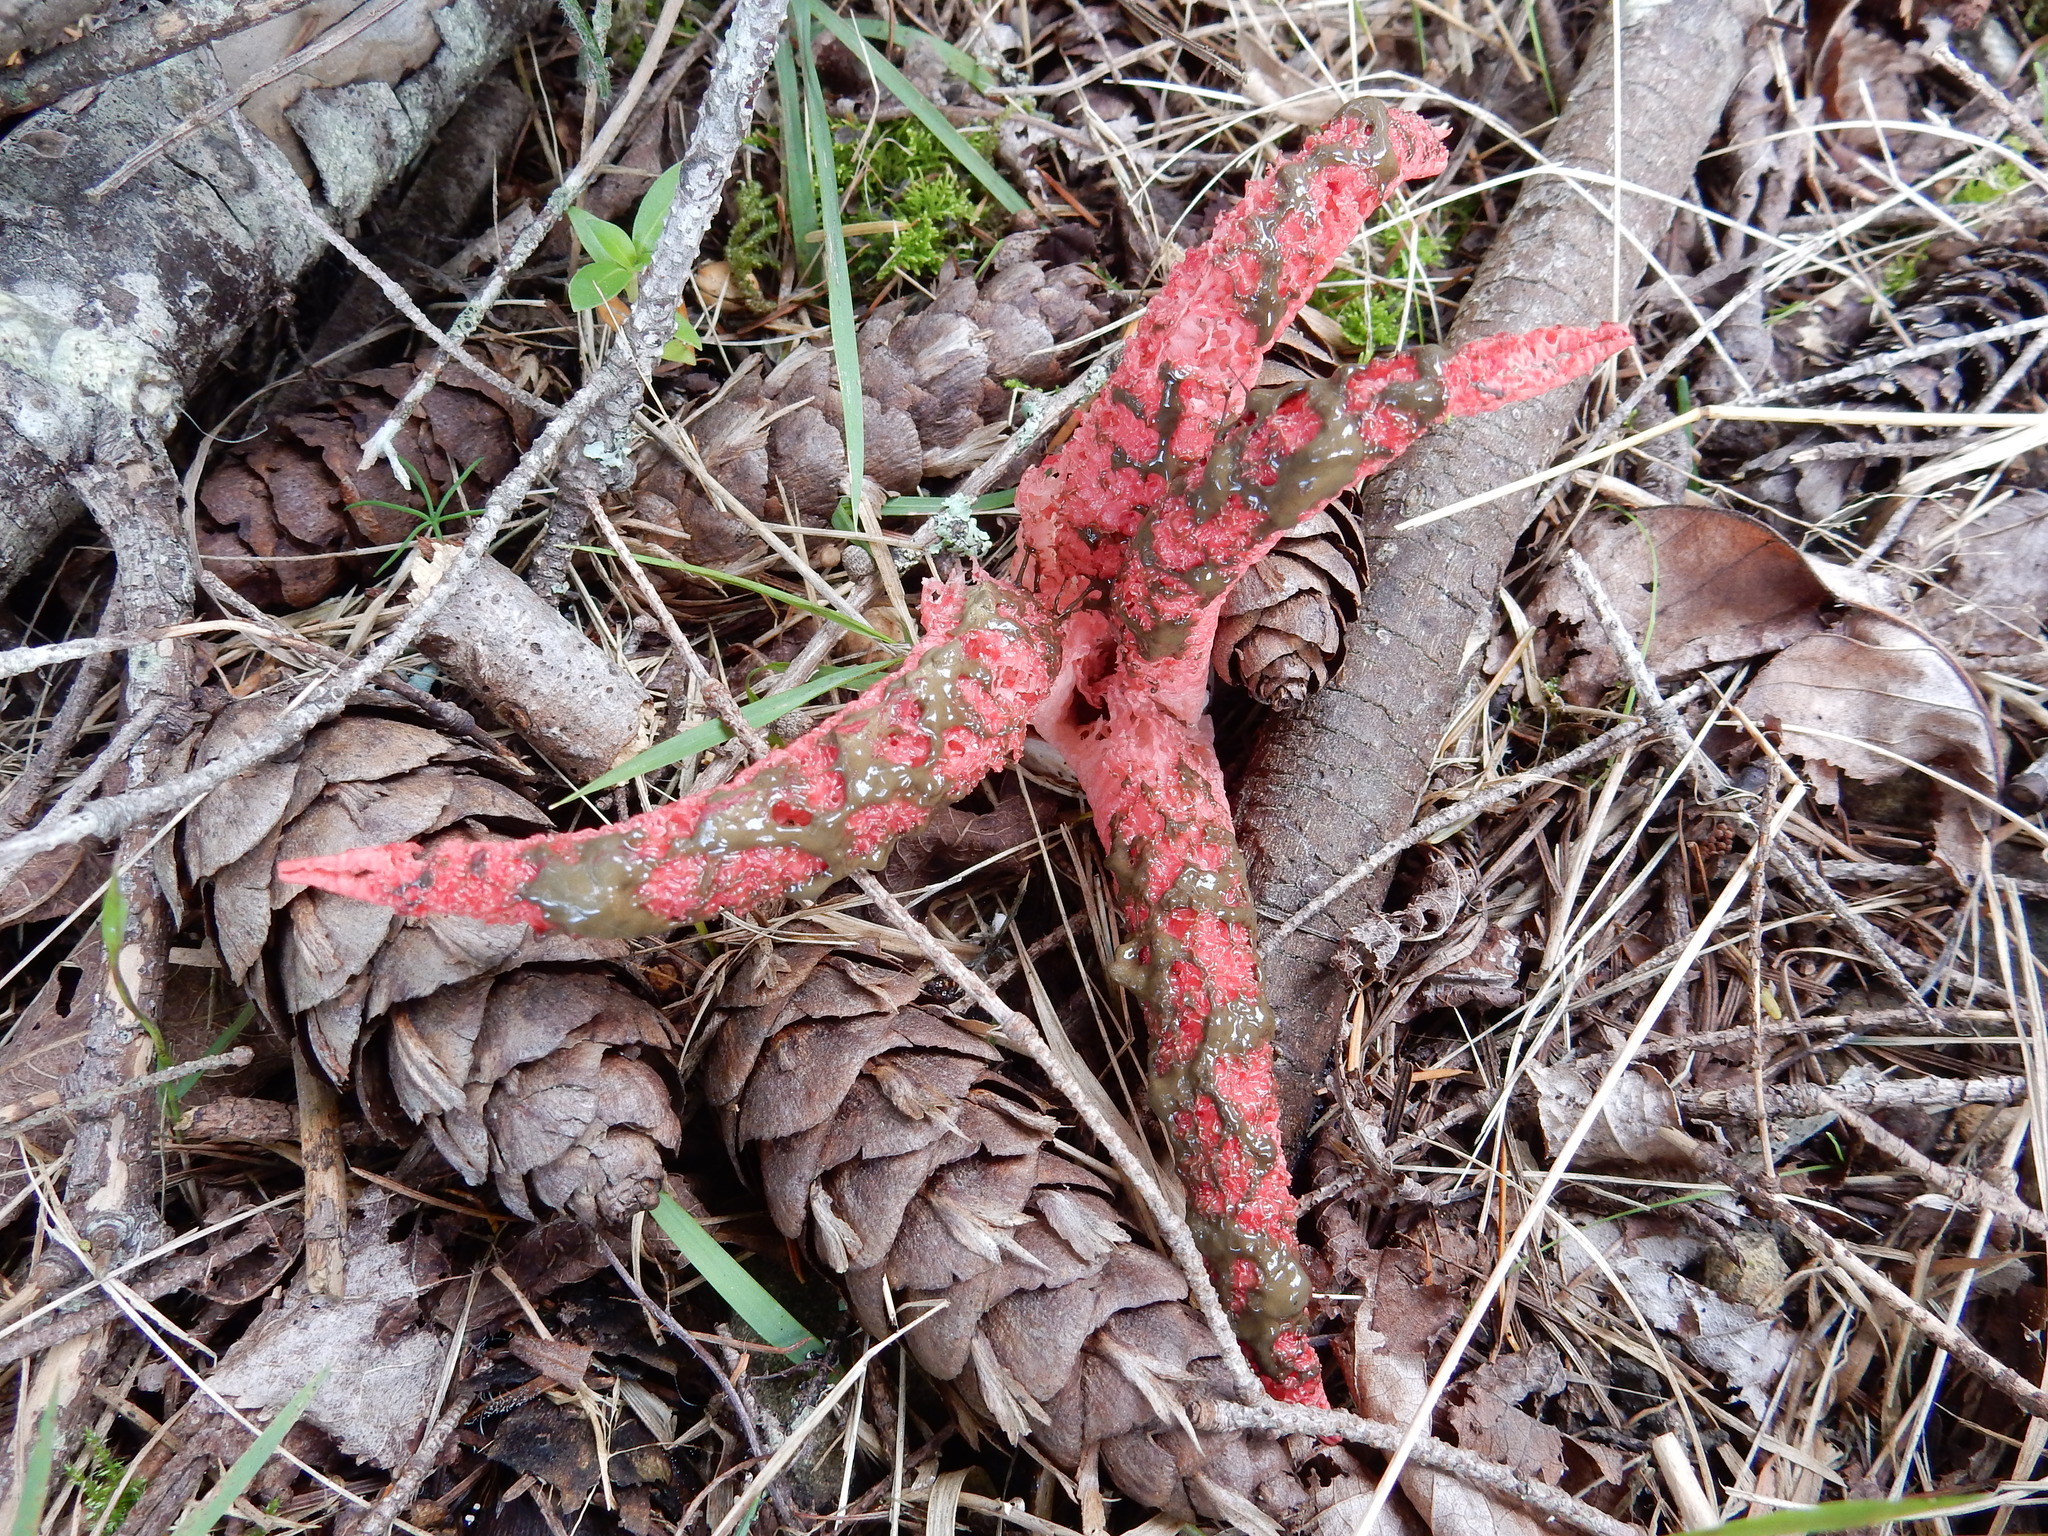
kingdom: Fungi
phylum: Basidiomycota
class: Agaricomycetes
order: Phallales
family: Phallaceae
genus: Clathrus
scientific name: Clathrus archeri
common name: Devil's fingers
